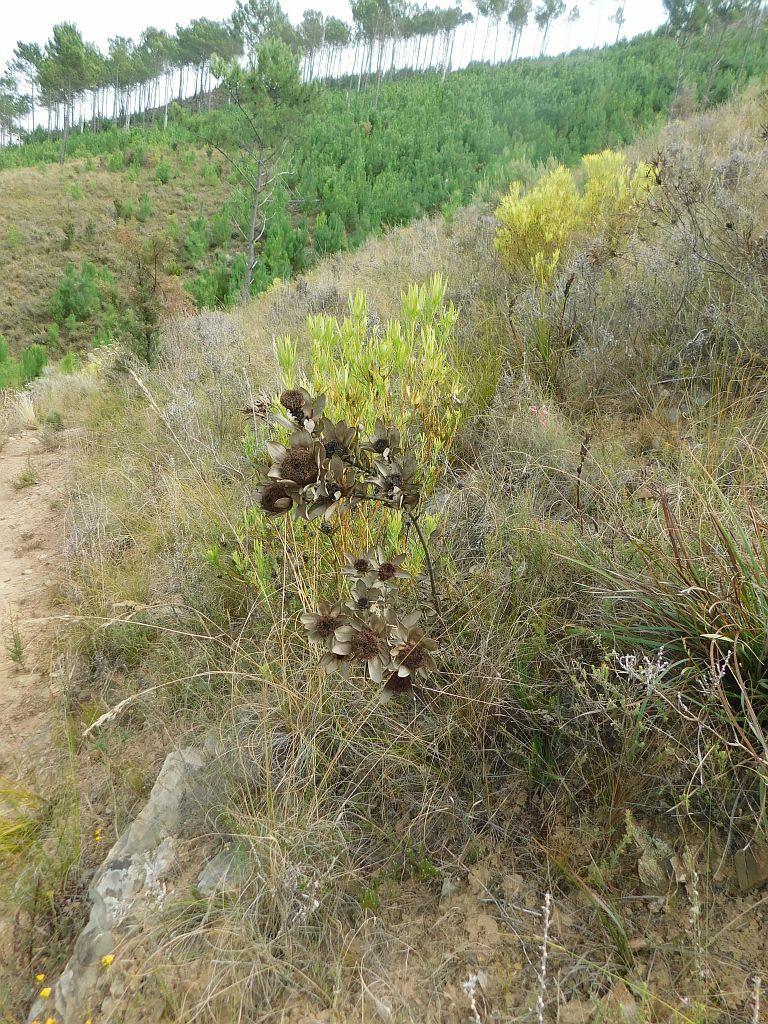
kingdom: Plantae
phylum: Tracheophyta
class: Magnoliopsida
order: Proteales
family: Proteaceae
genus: Leucadendron
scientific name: Leucadendron elimense
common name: Elim conebush
